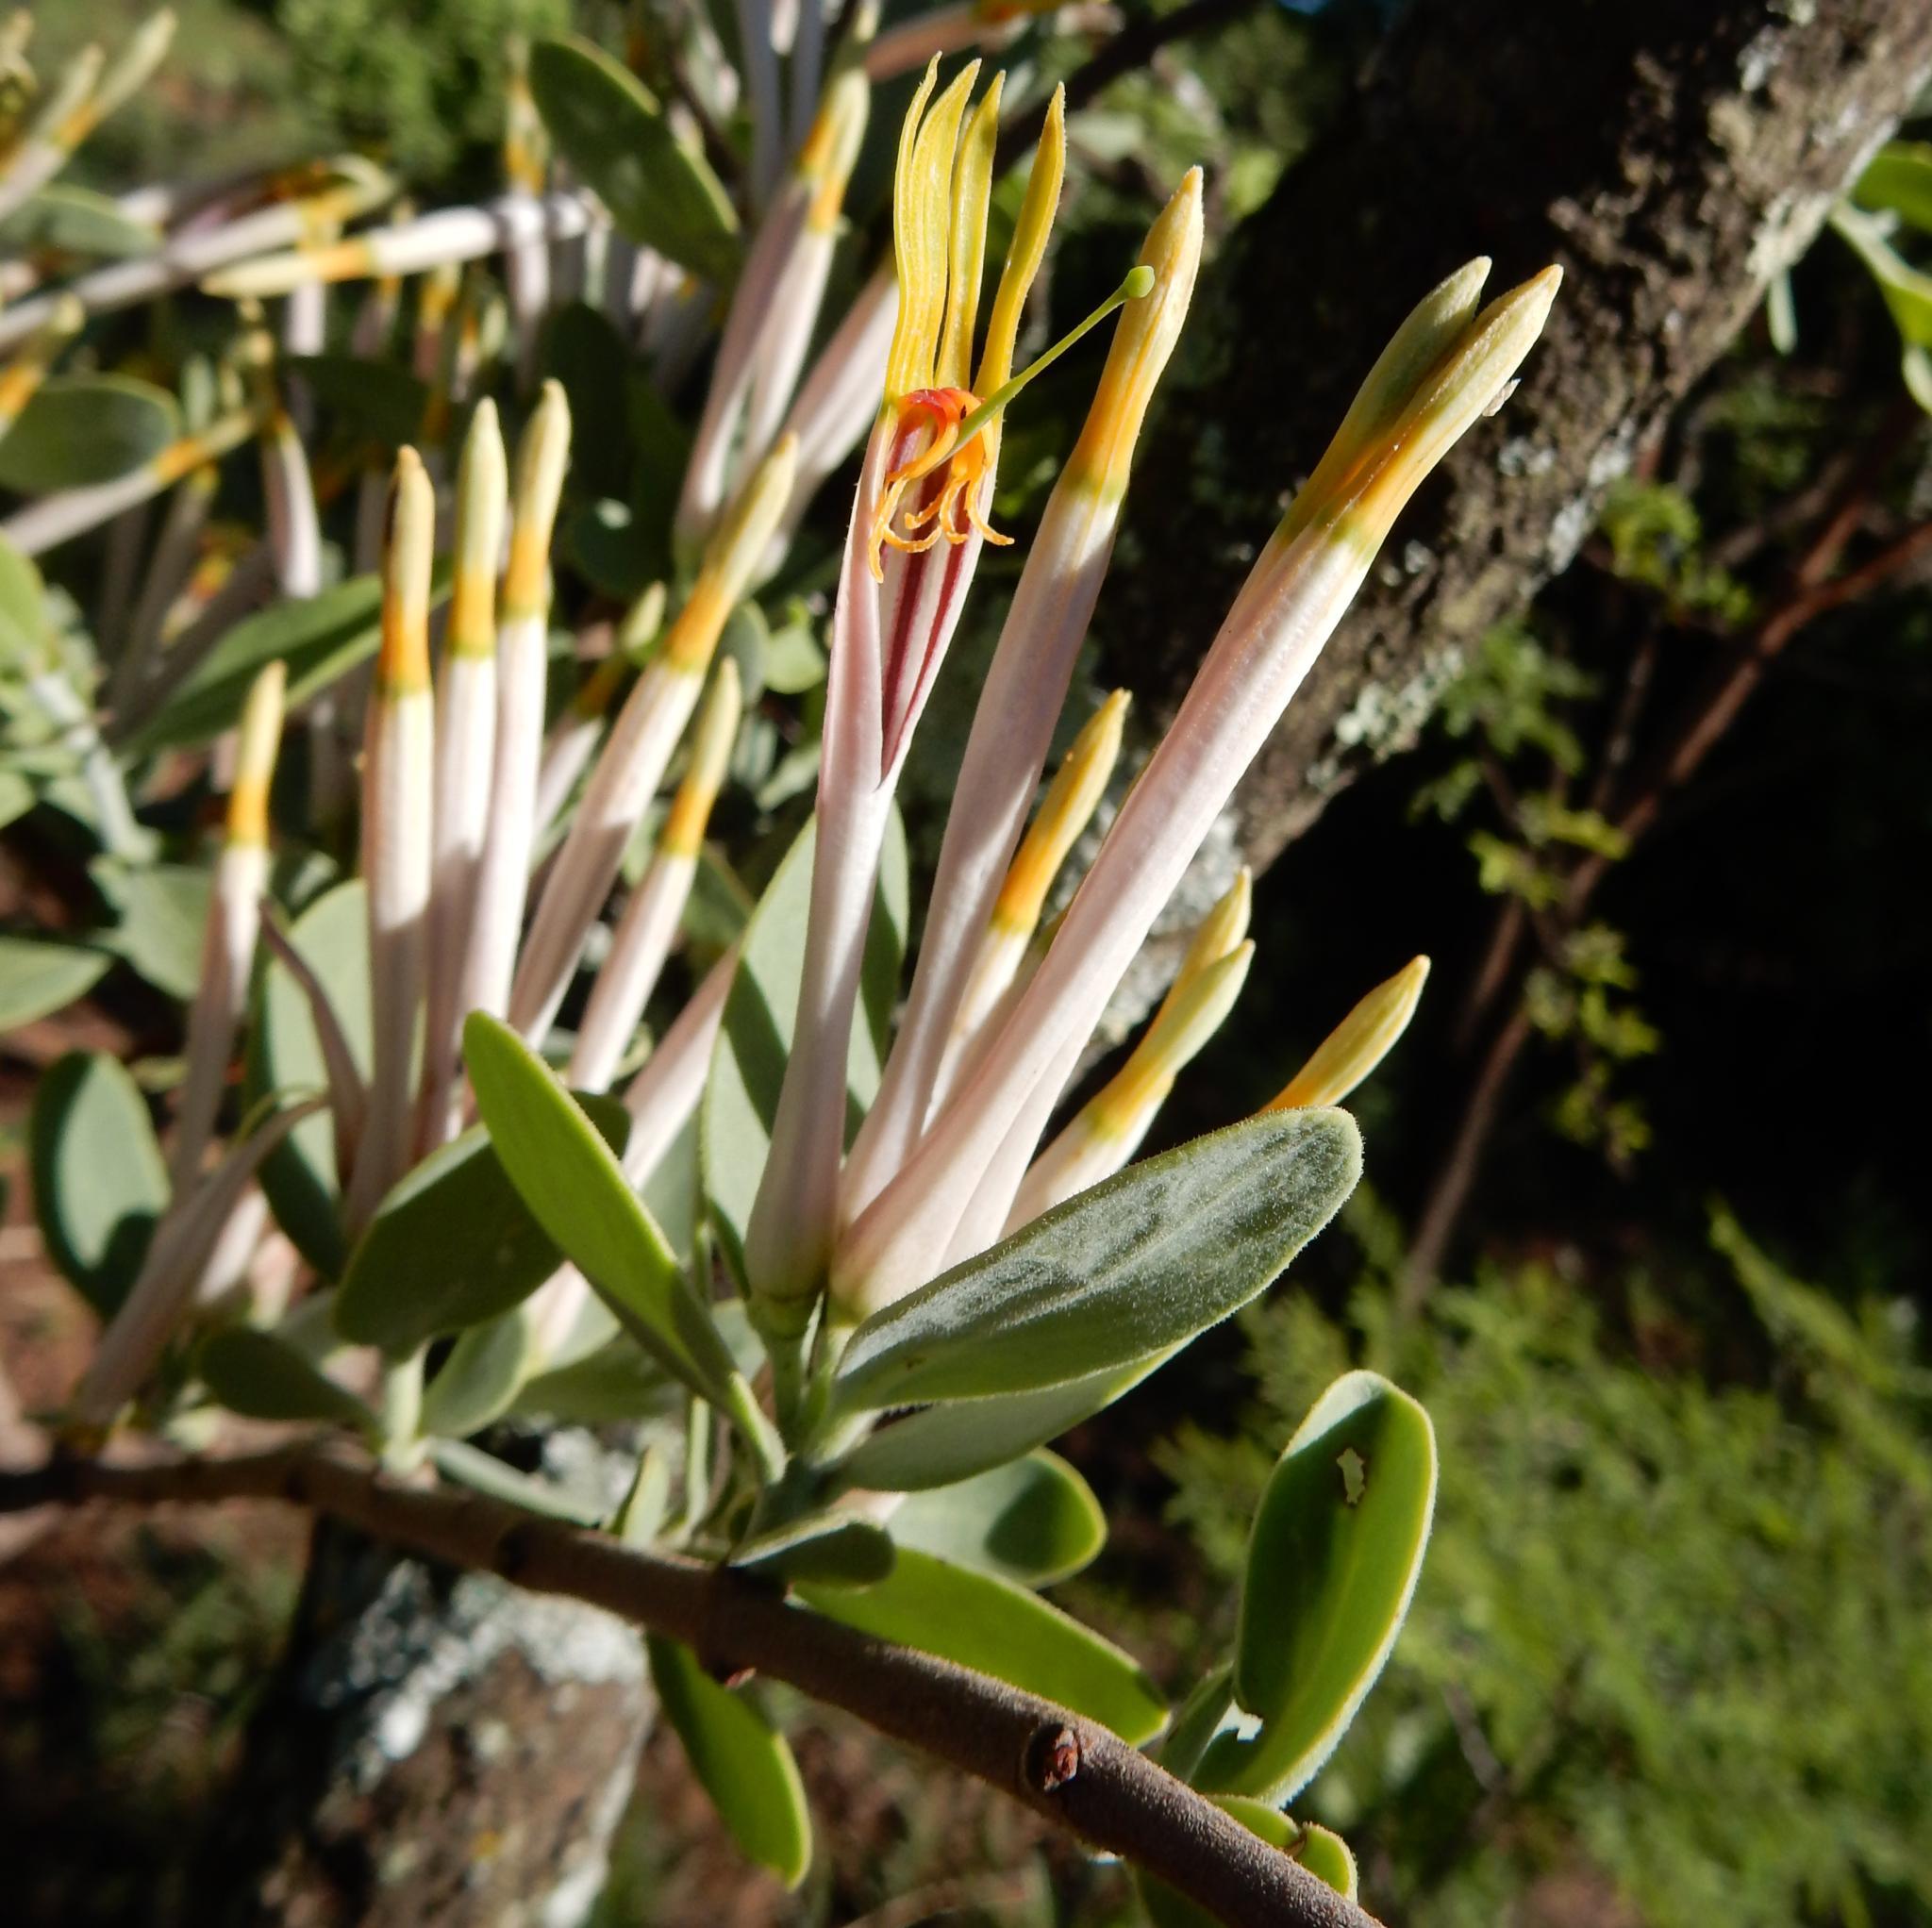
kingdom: Plantae
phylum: Tracheophyta
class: Magnoliopsida
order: Santalales
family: Loranthaceae
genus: Agelanthus
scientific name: Agelanthus natalitius
